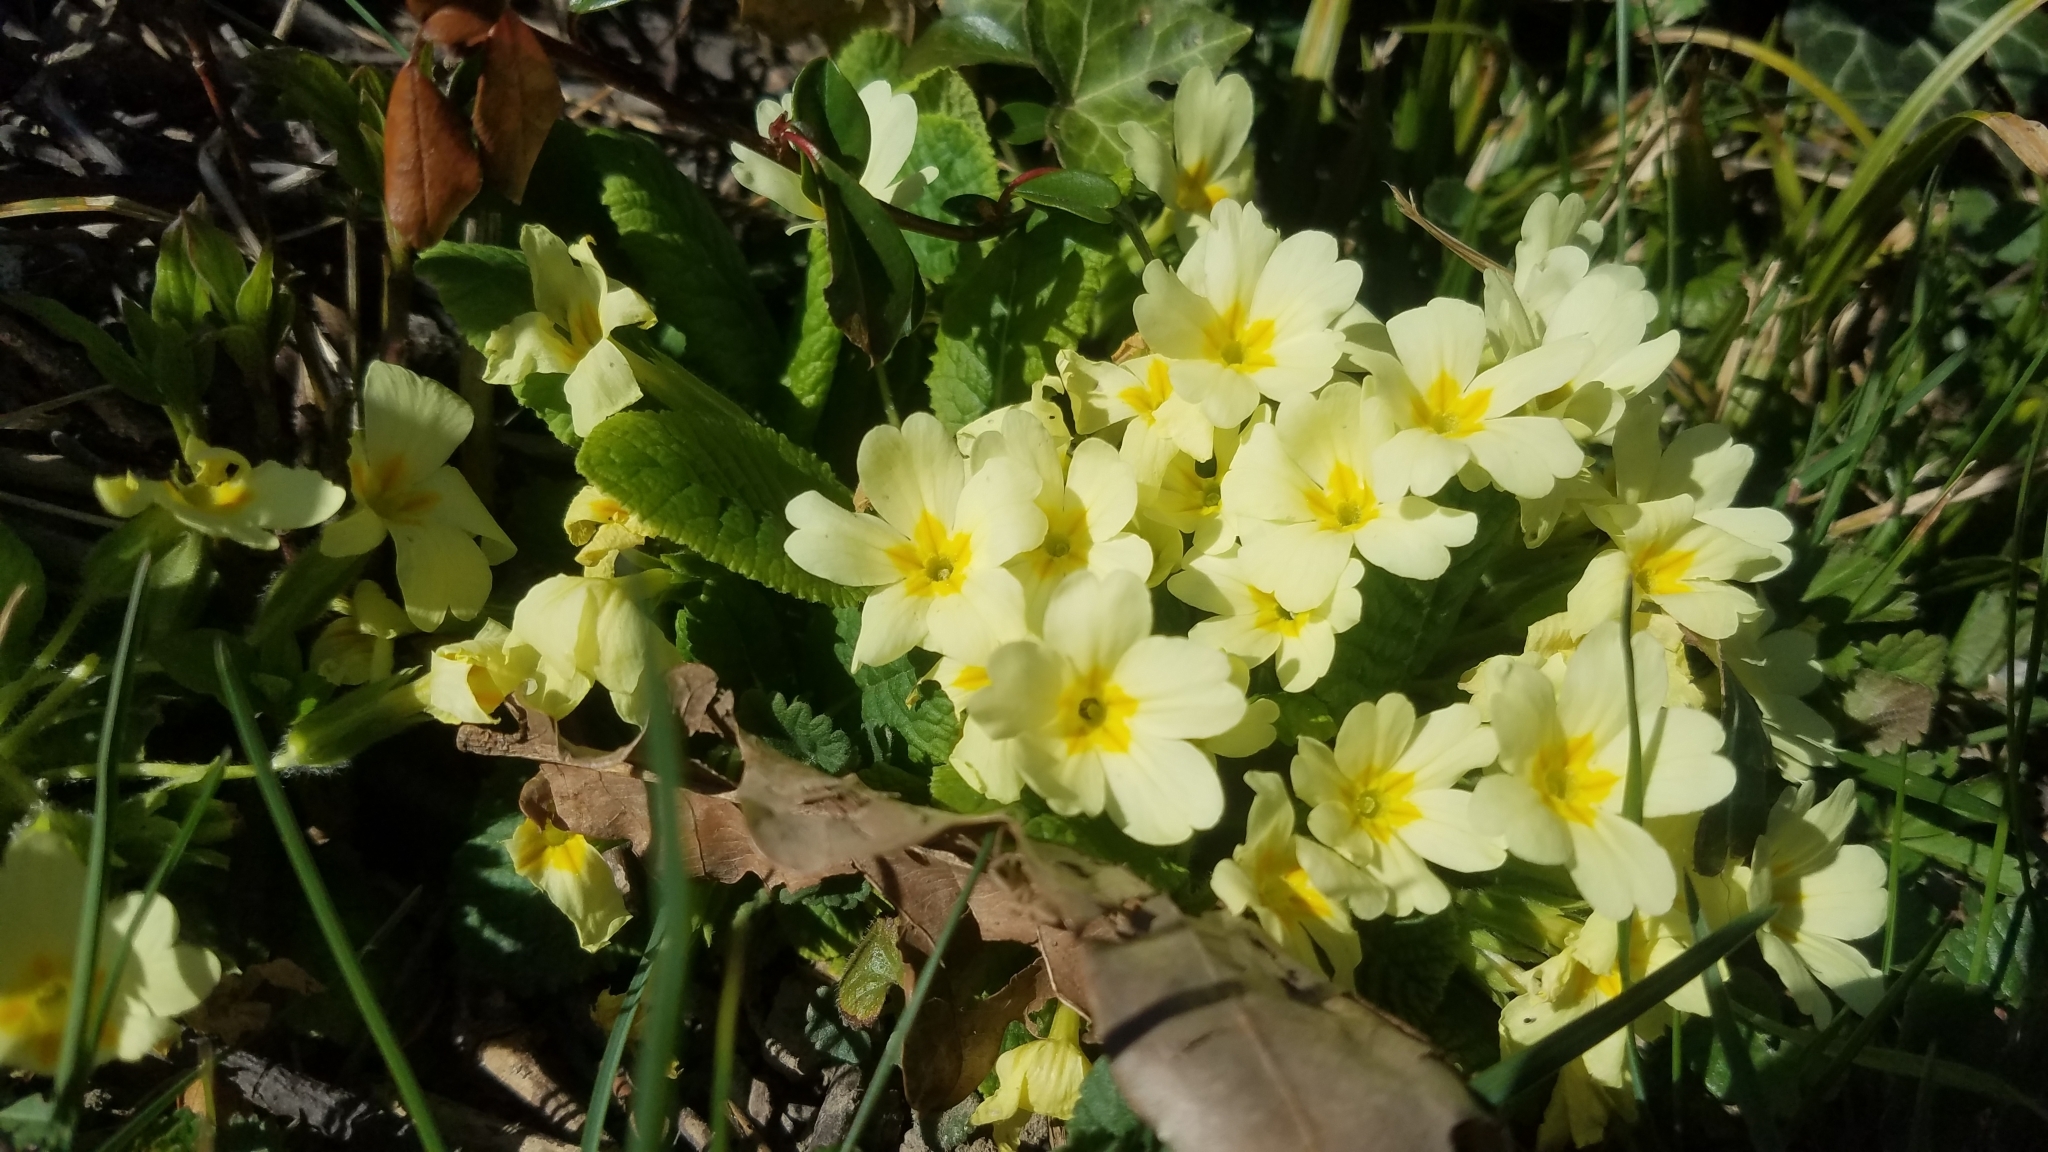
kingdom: Plantae
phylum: Tracheophyta
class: Magnoliopsida
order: Ericales
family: Primulaceae
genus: Primula
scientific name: Primula vulgaris
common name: Primrose
